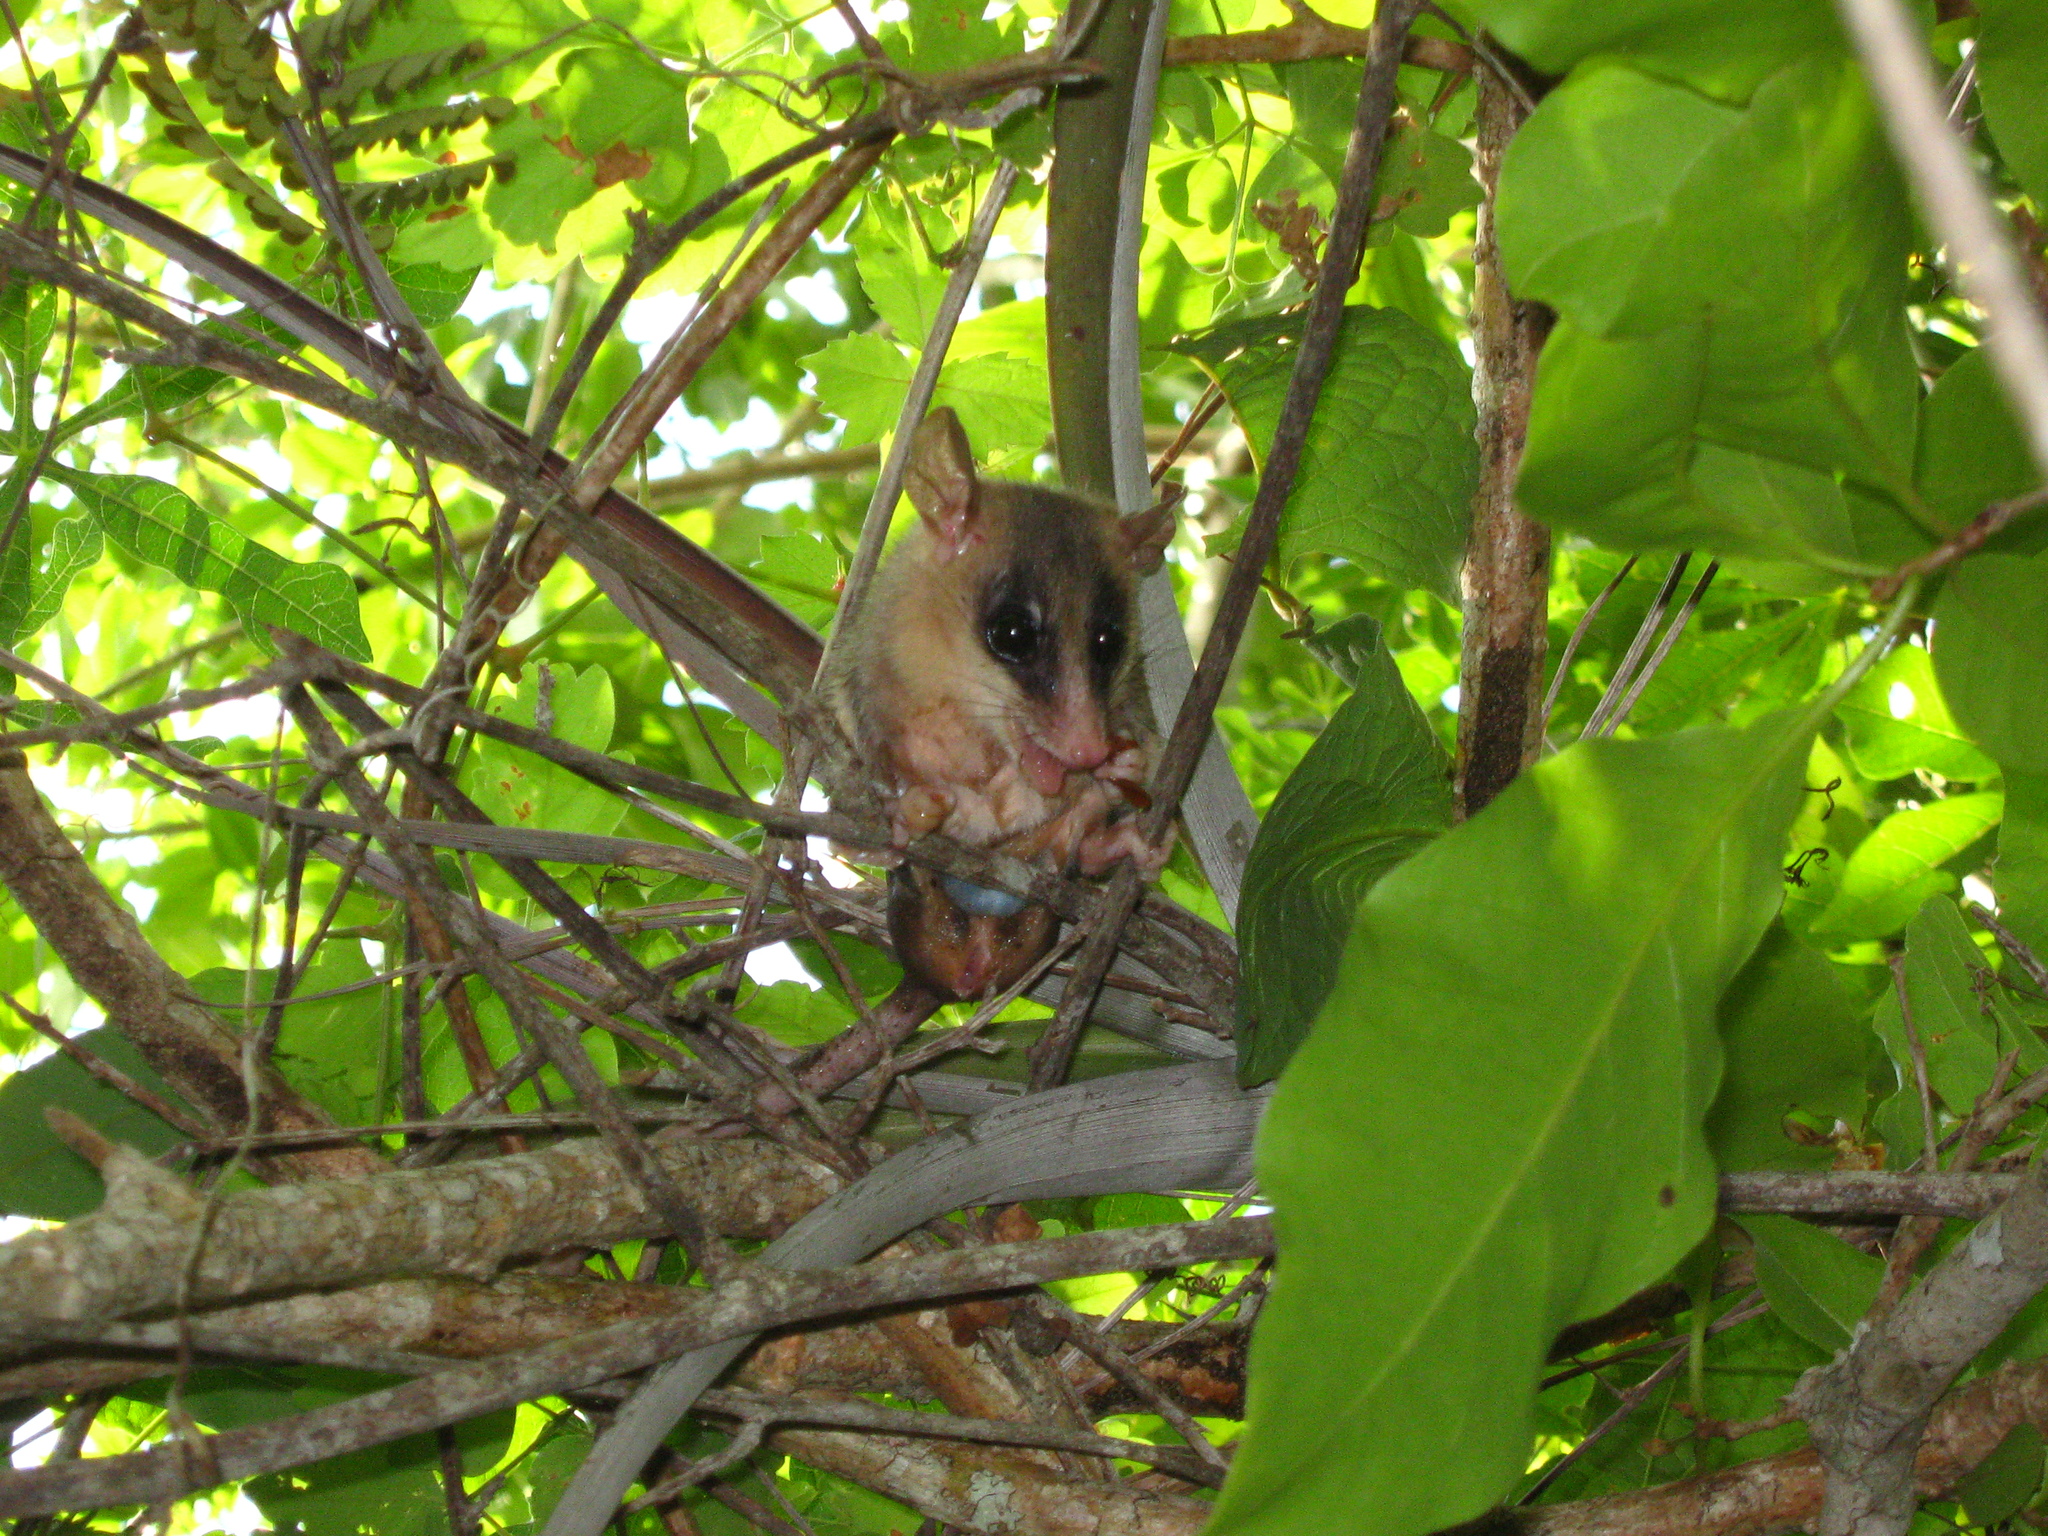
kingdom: Animalia
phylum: Chordata
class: Mammalia
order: Didelphimorphia
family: Didelphidae
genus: Tlacuatzin
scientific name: Tlacuatzin
